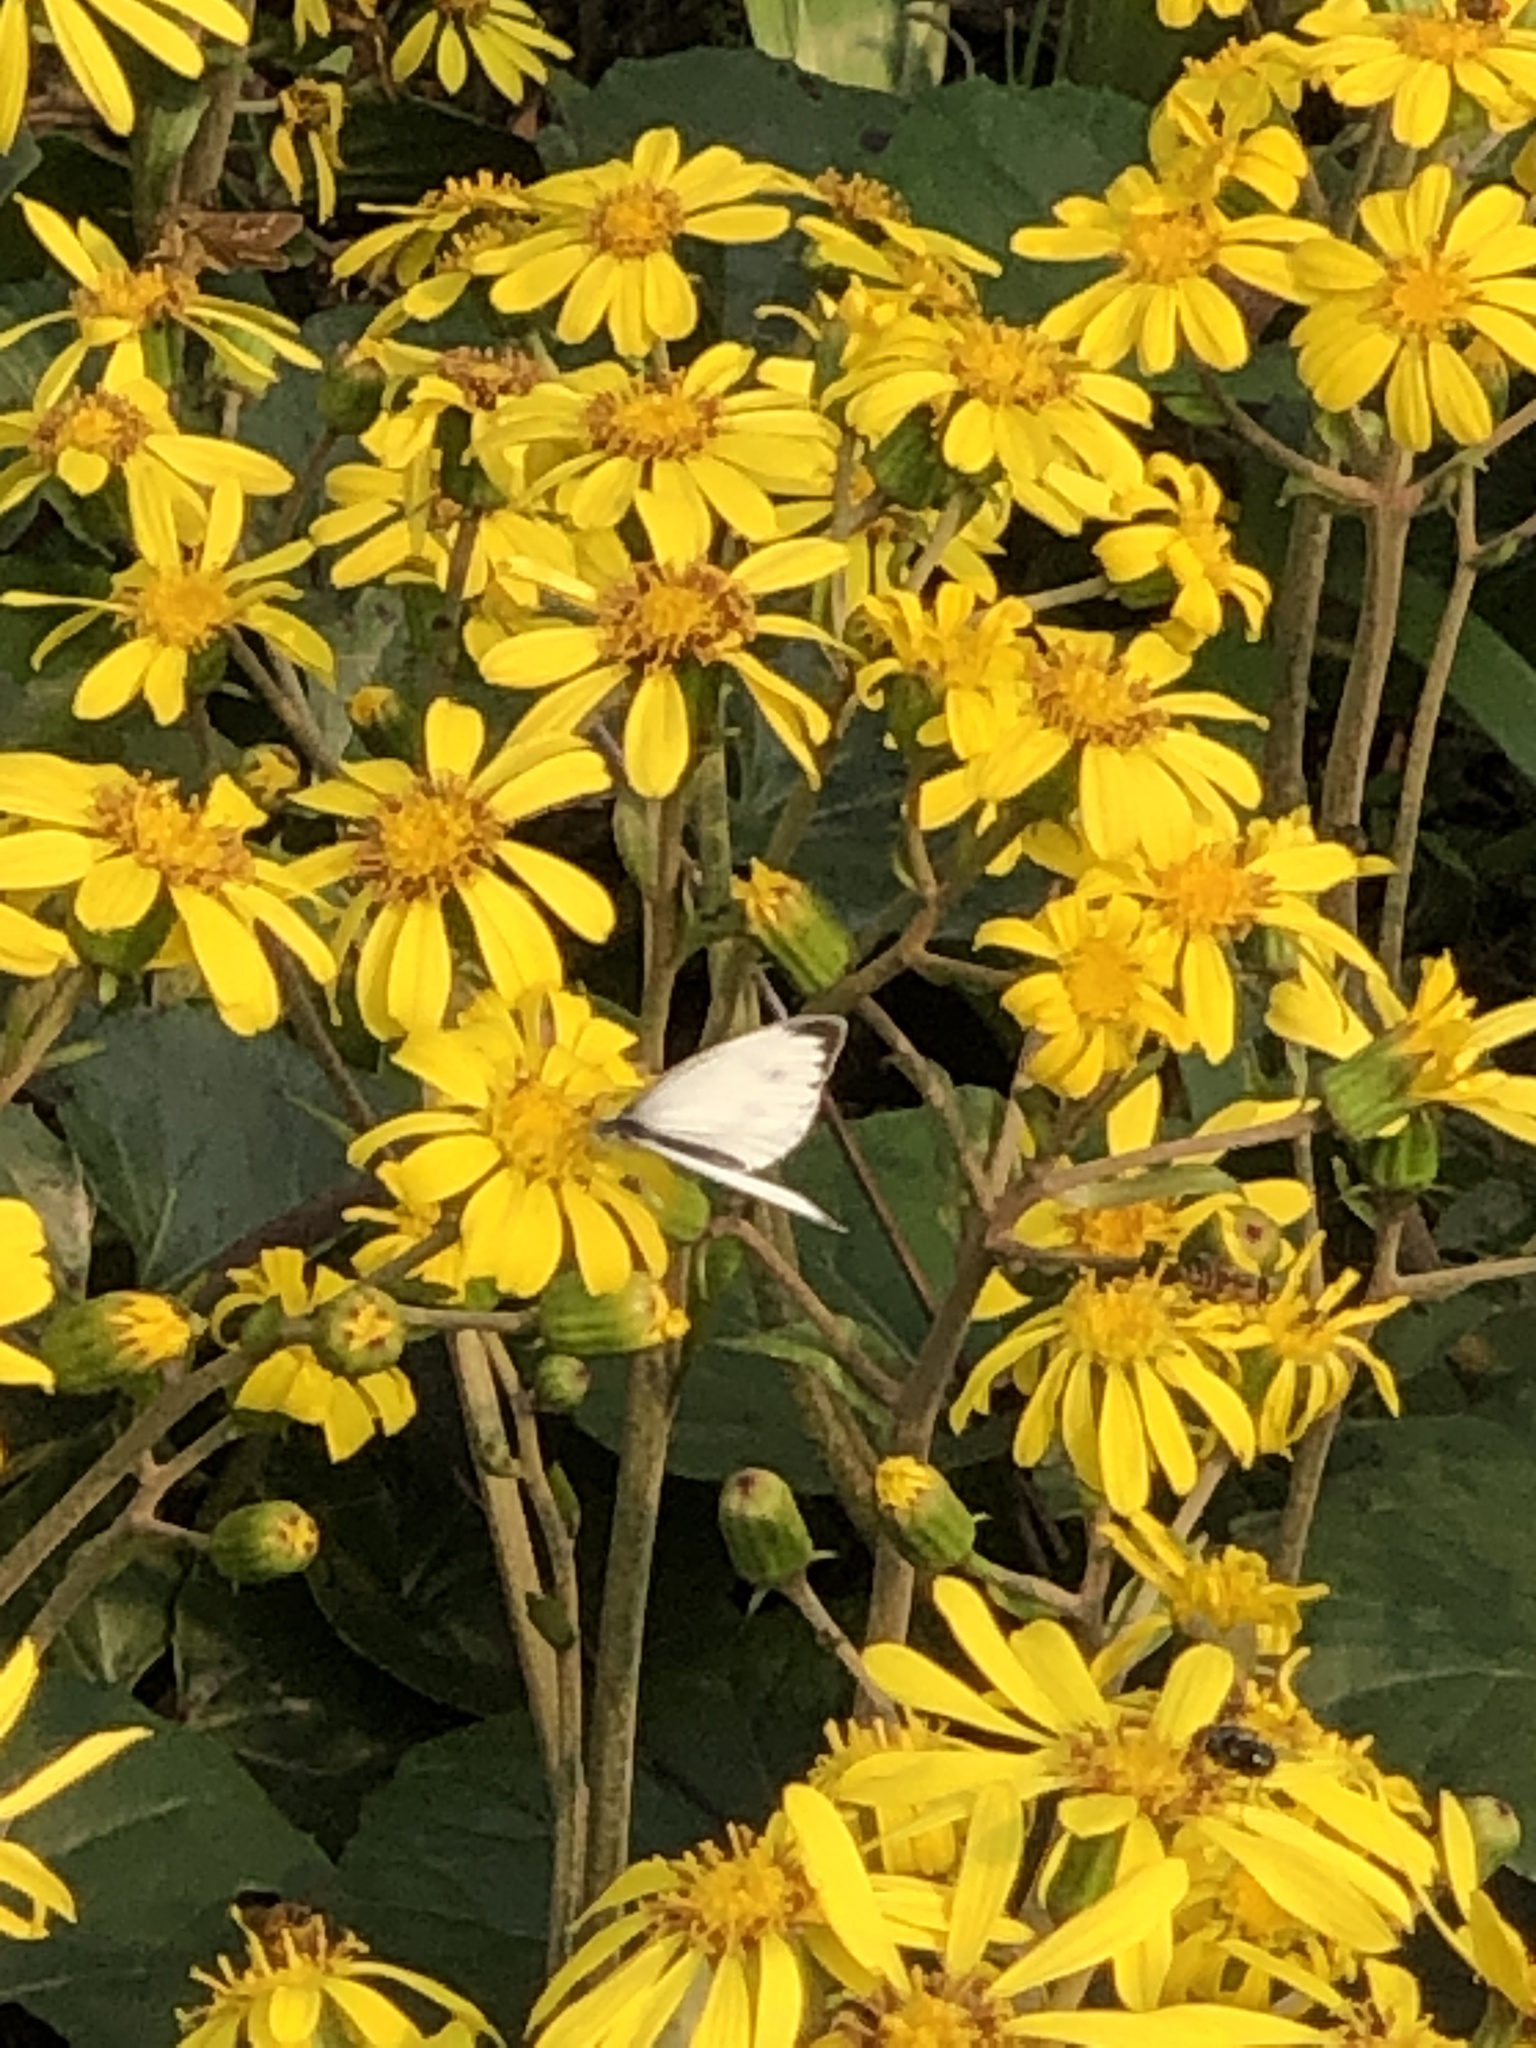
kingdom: Animalia
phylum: Arthropoda
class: Insecta
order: Lepidoptera
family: Pieridae
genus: Pieris
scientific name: Pieris canidia
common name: Indian cabbage white
